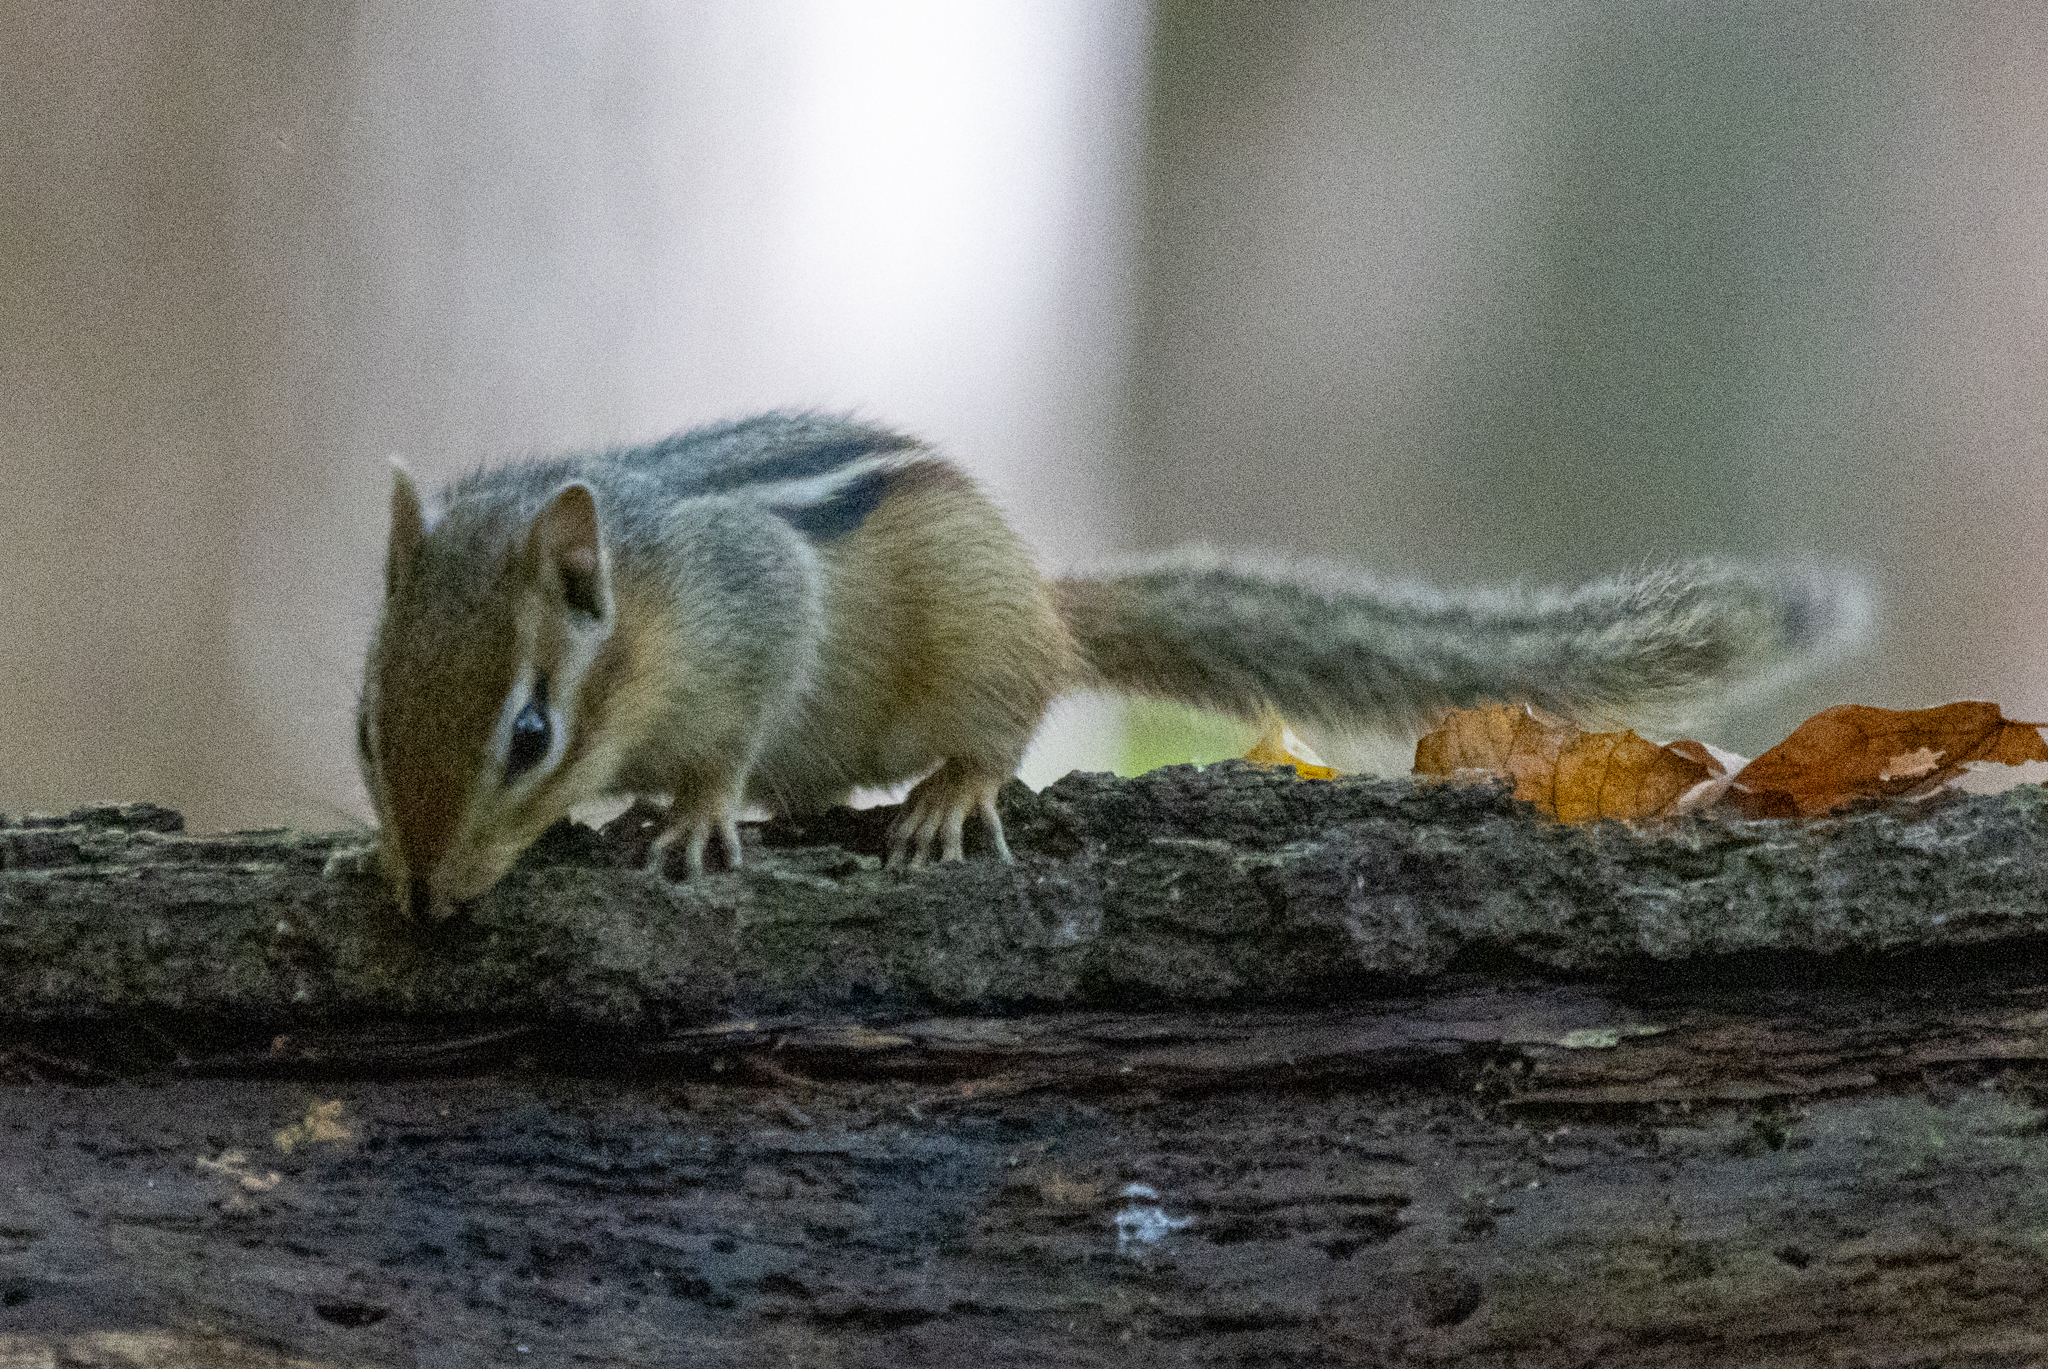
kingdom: Animalia
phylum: Chordata
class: Mammalia
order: Rodentia
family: Sciuridae
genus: Tamias
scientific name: Tamias striatus
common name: Eastern chipmunk
